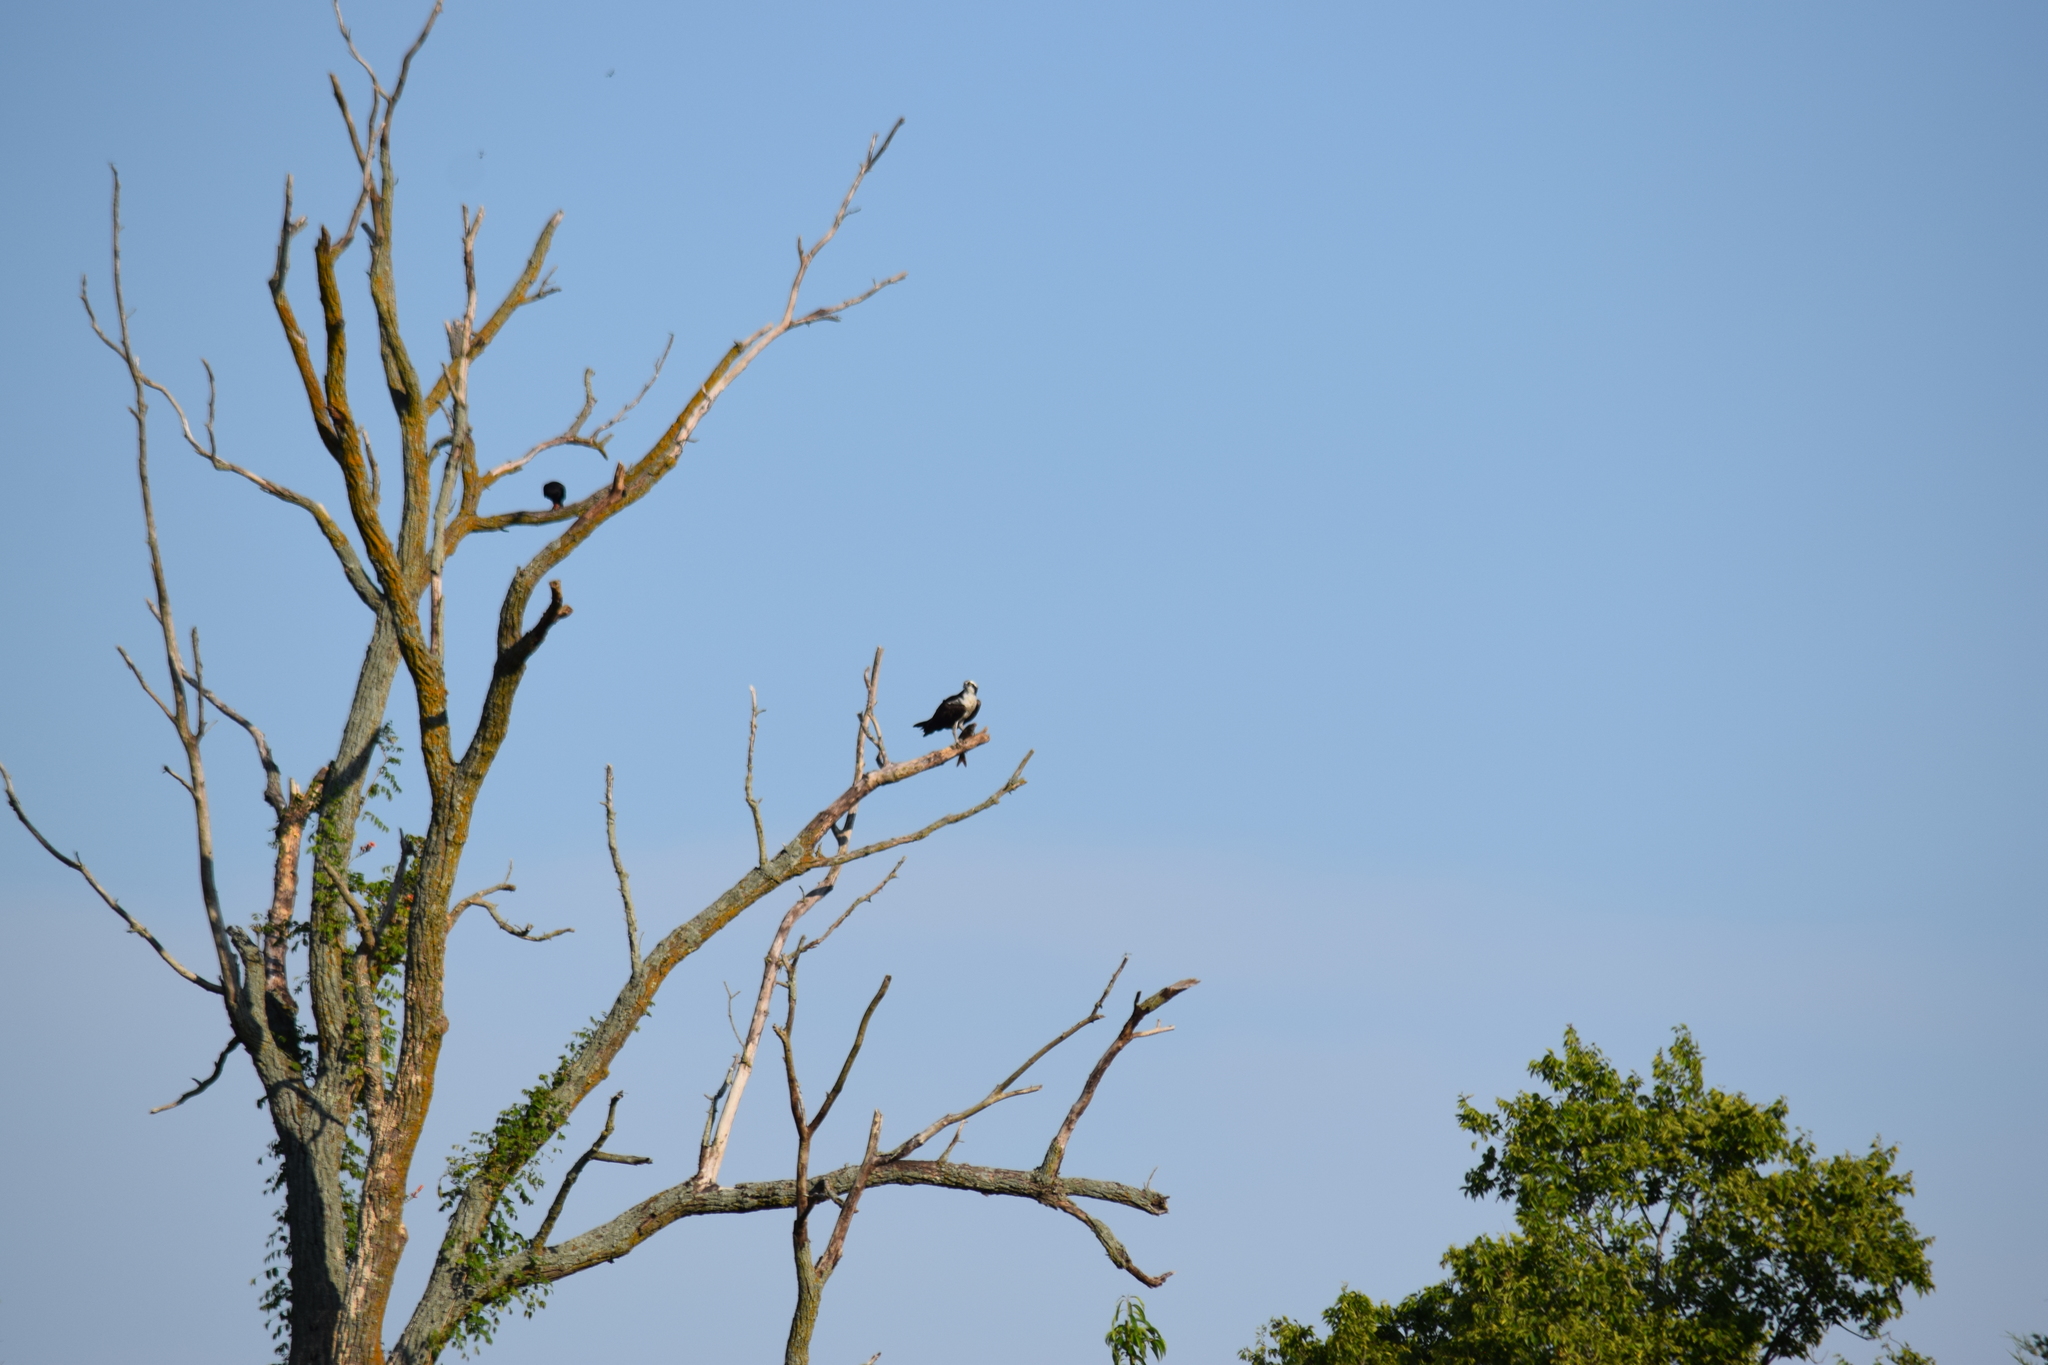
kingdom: Animalia
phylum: Chordata
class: Aves
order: Accipitriformes
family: Pandionidae
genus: Pandion
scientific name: Pandion haliaetus
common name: Osprey
